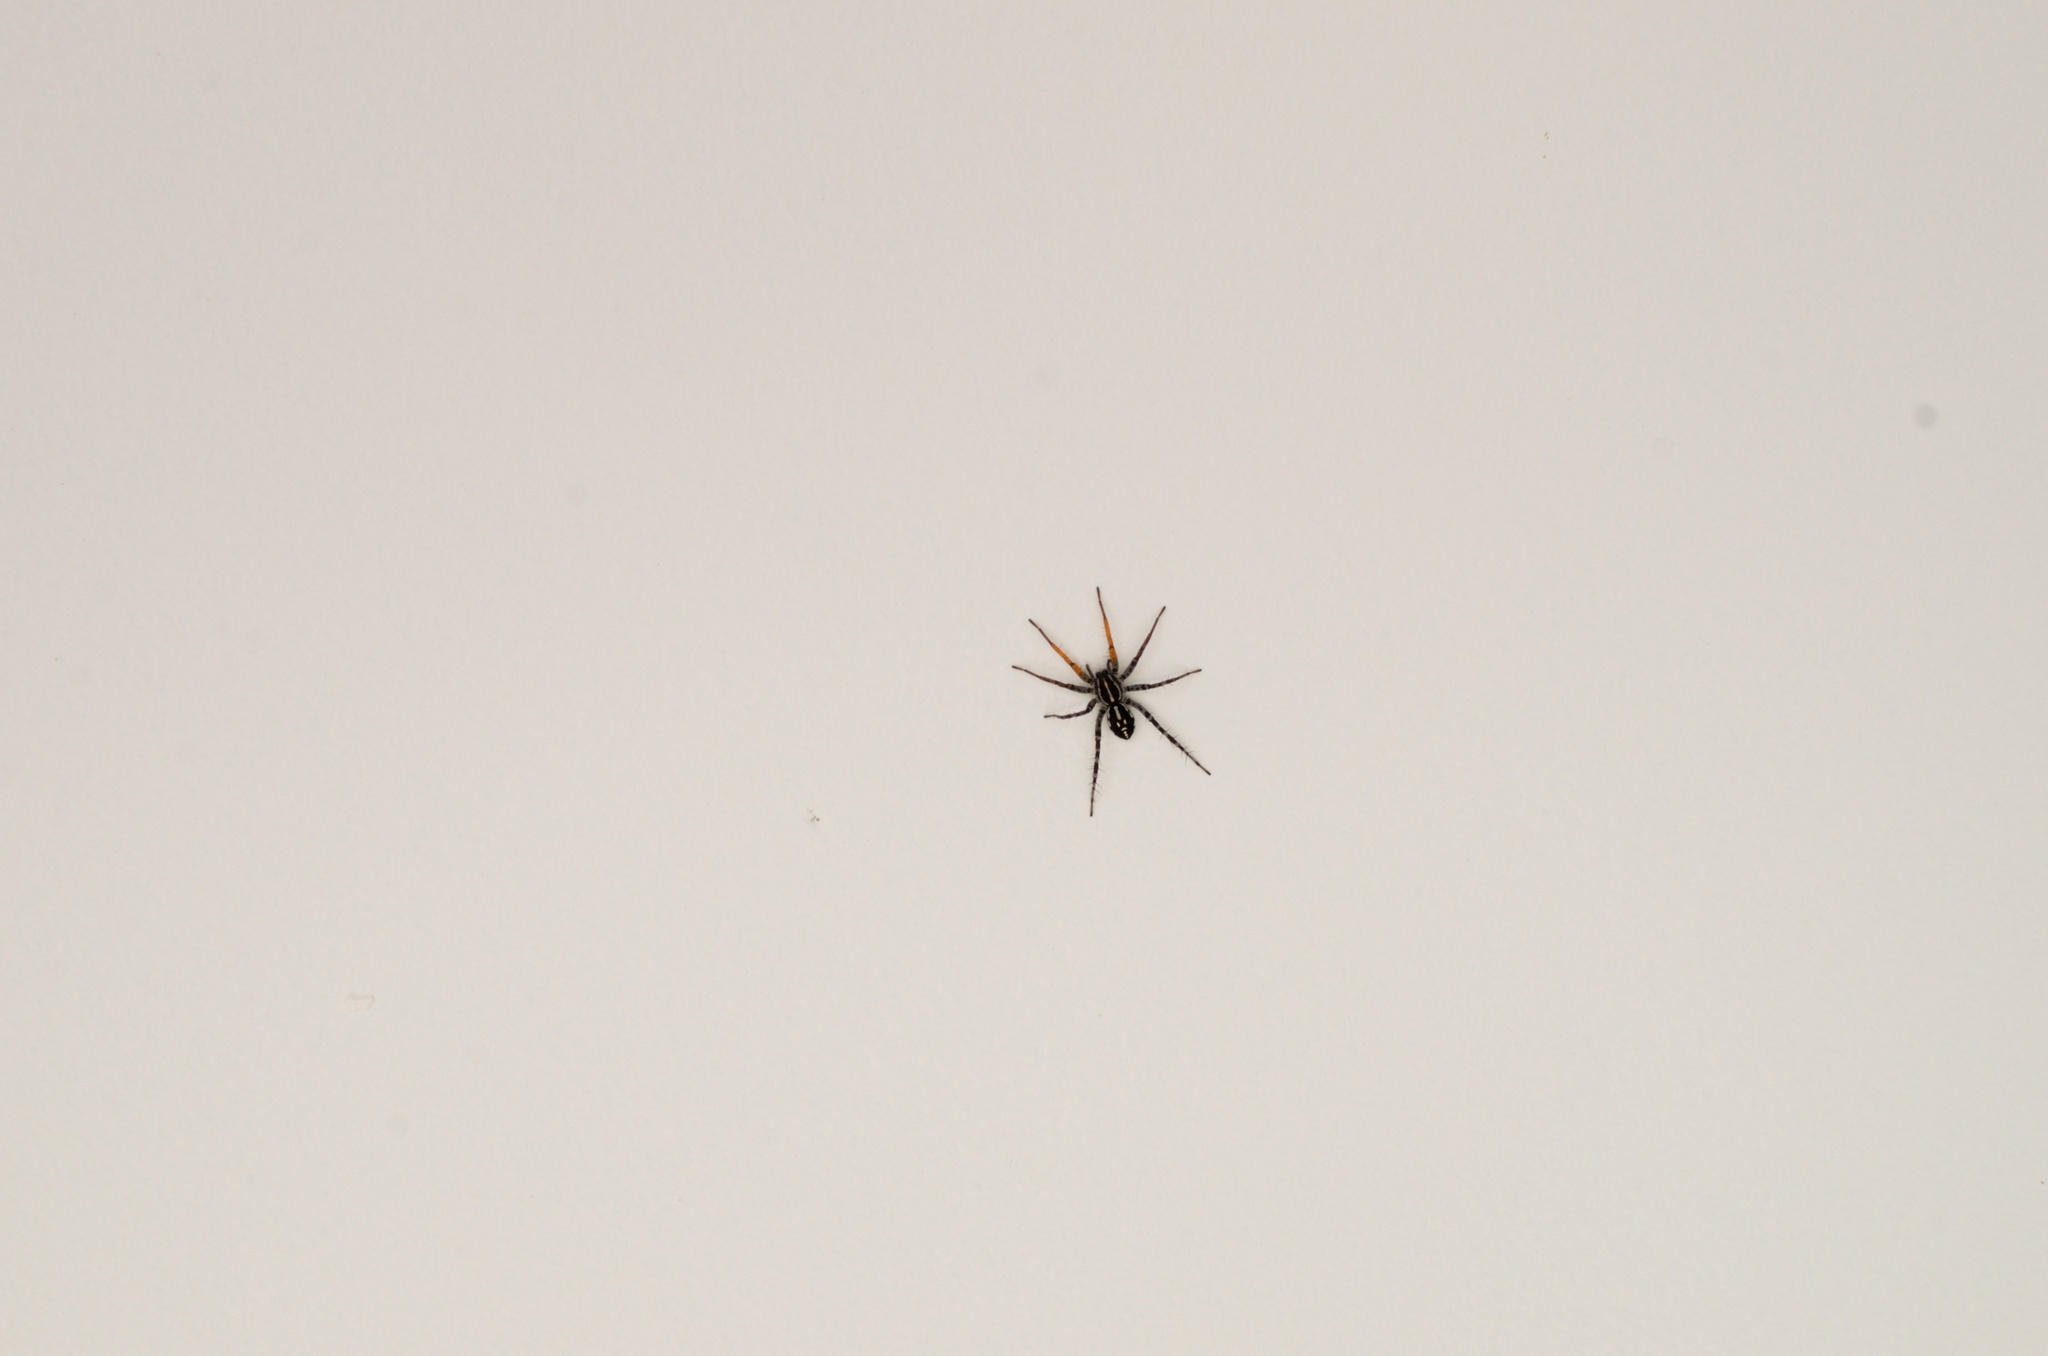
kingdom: Animalia
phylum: Arthropoda
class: Arachnida
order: Araneae
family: Corinnidae
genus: Nyssus
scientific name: Nyssus coloripes
